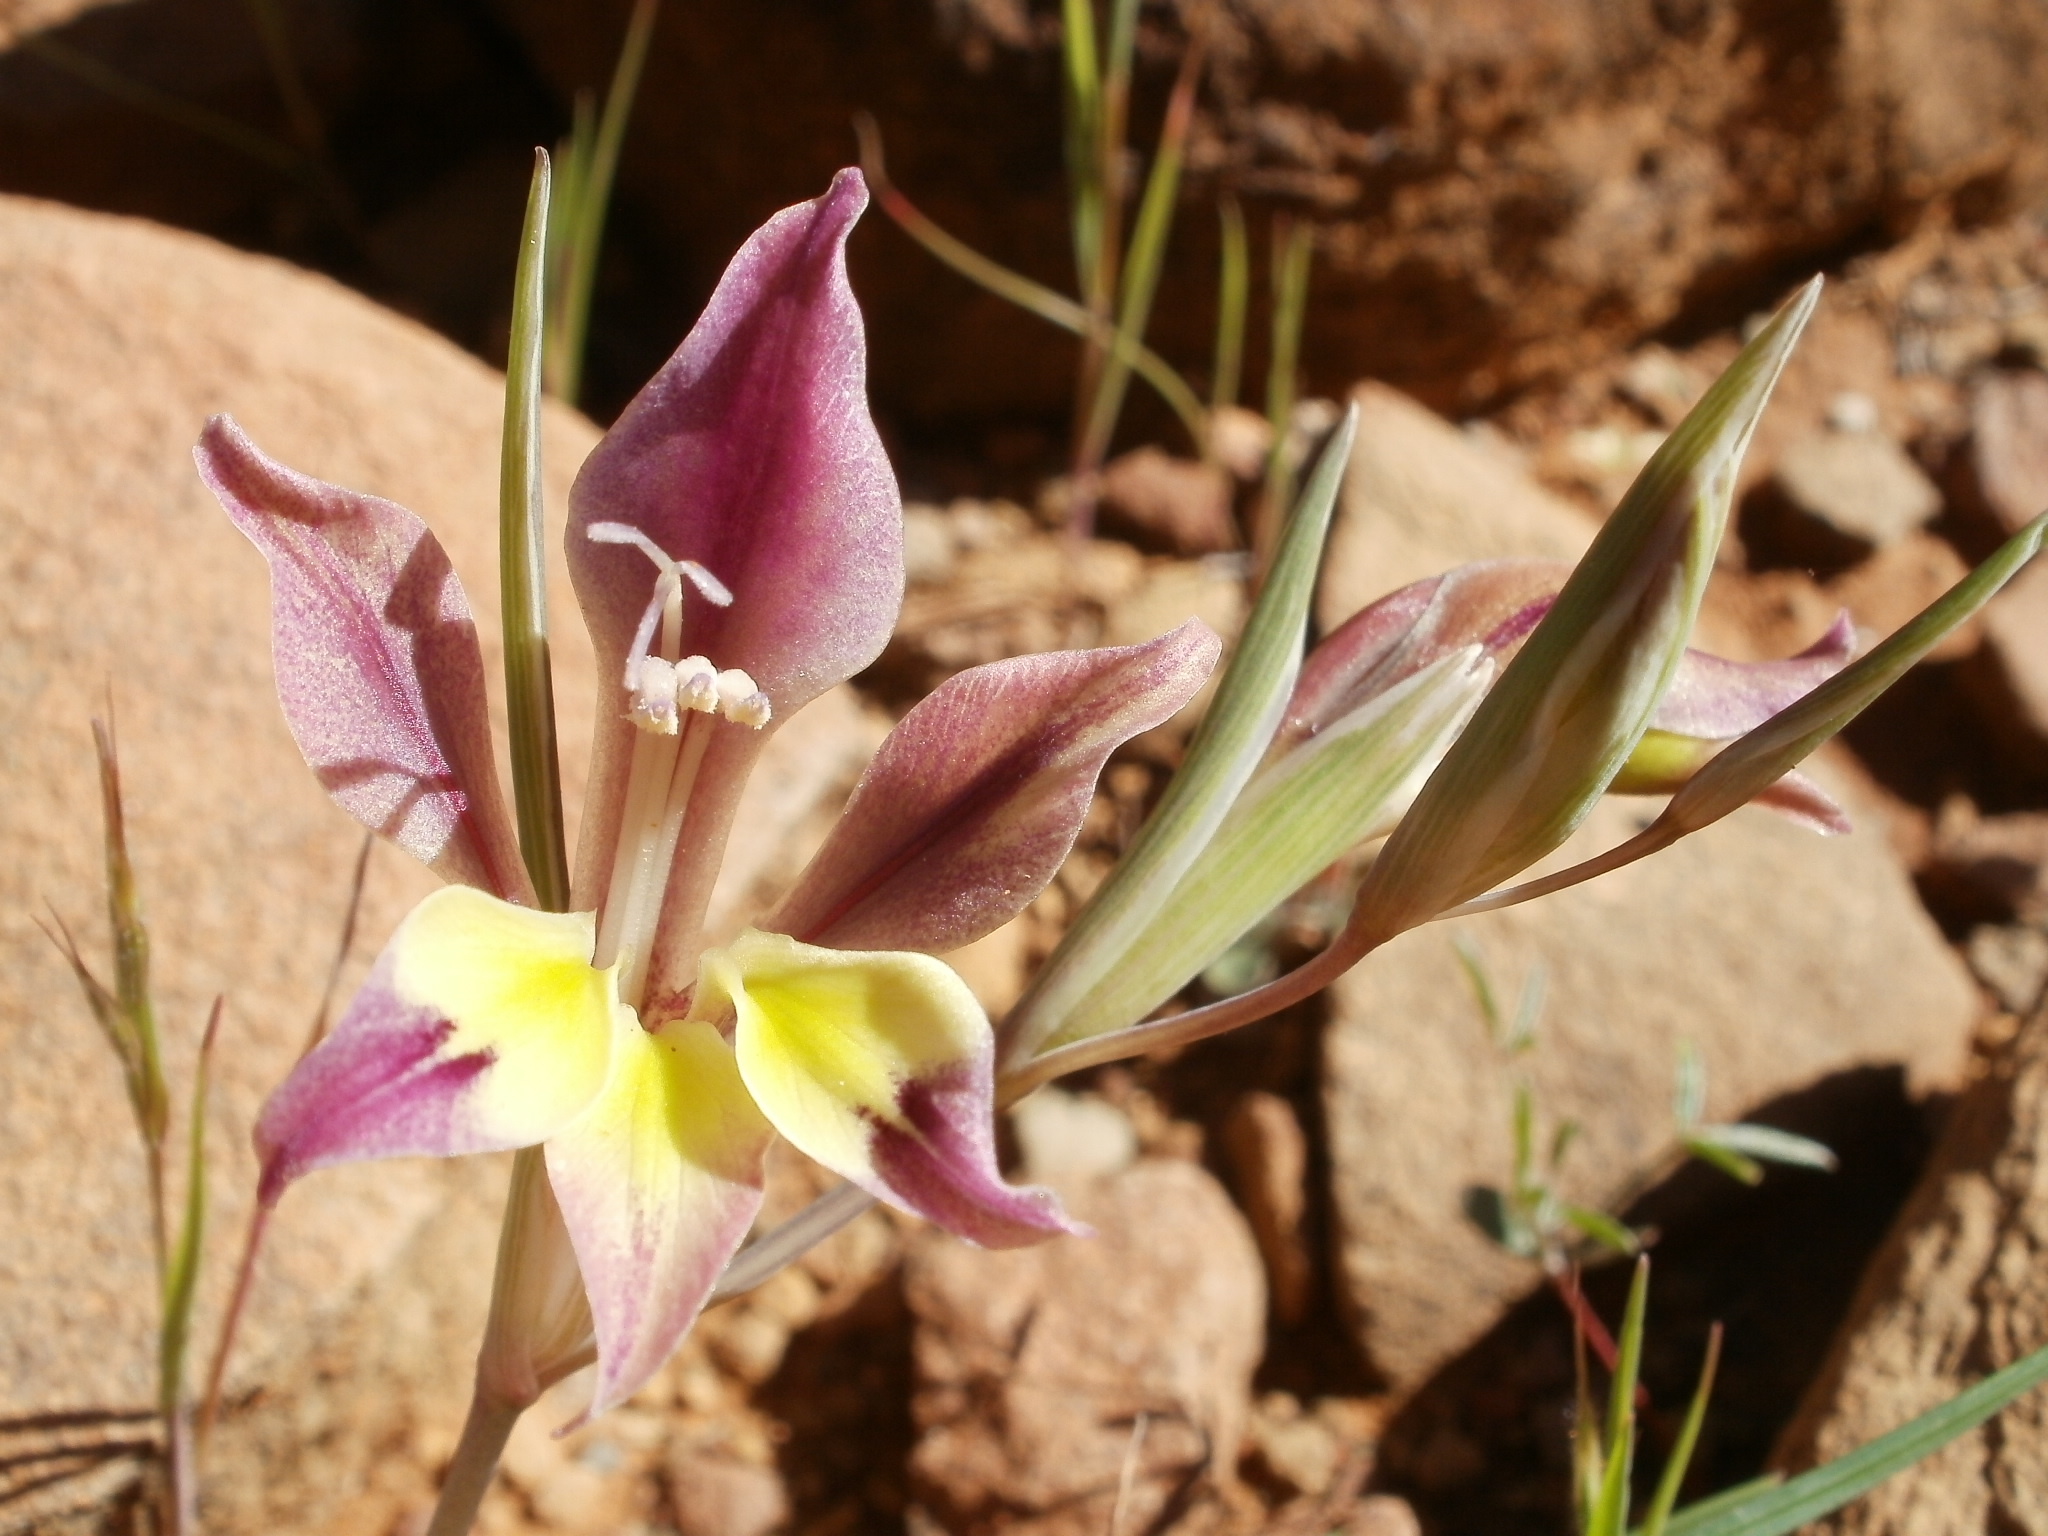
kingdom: Plantae
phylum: Tracheophyta
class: Liliopsida
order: Asparagales
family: Iridaceae
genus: Gladiolus
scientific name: Gladiolus scullyi
